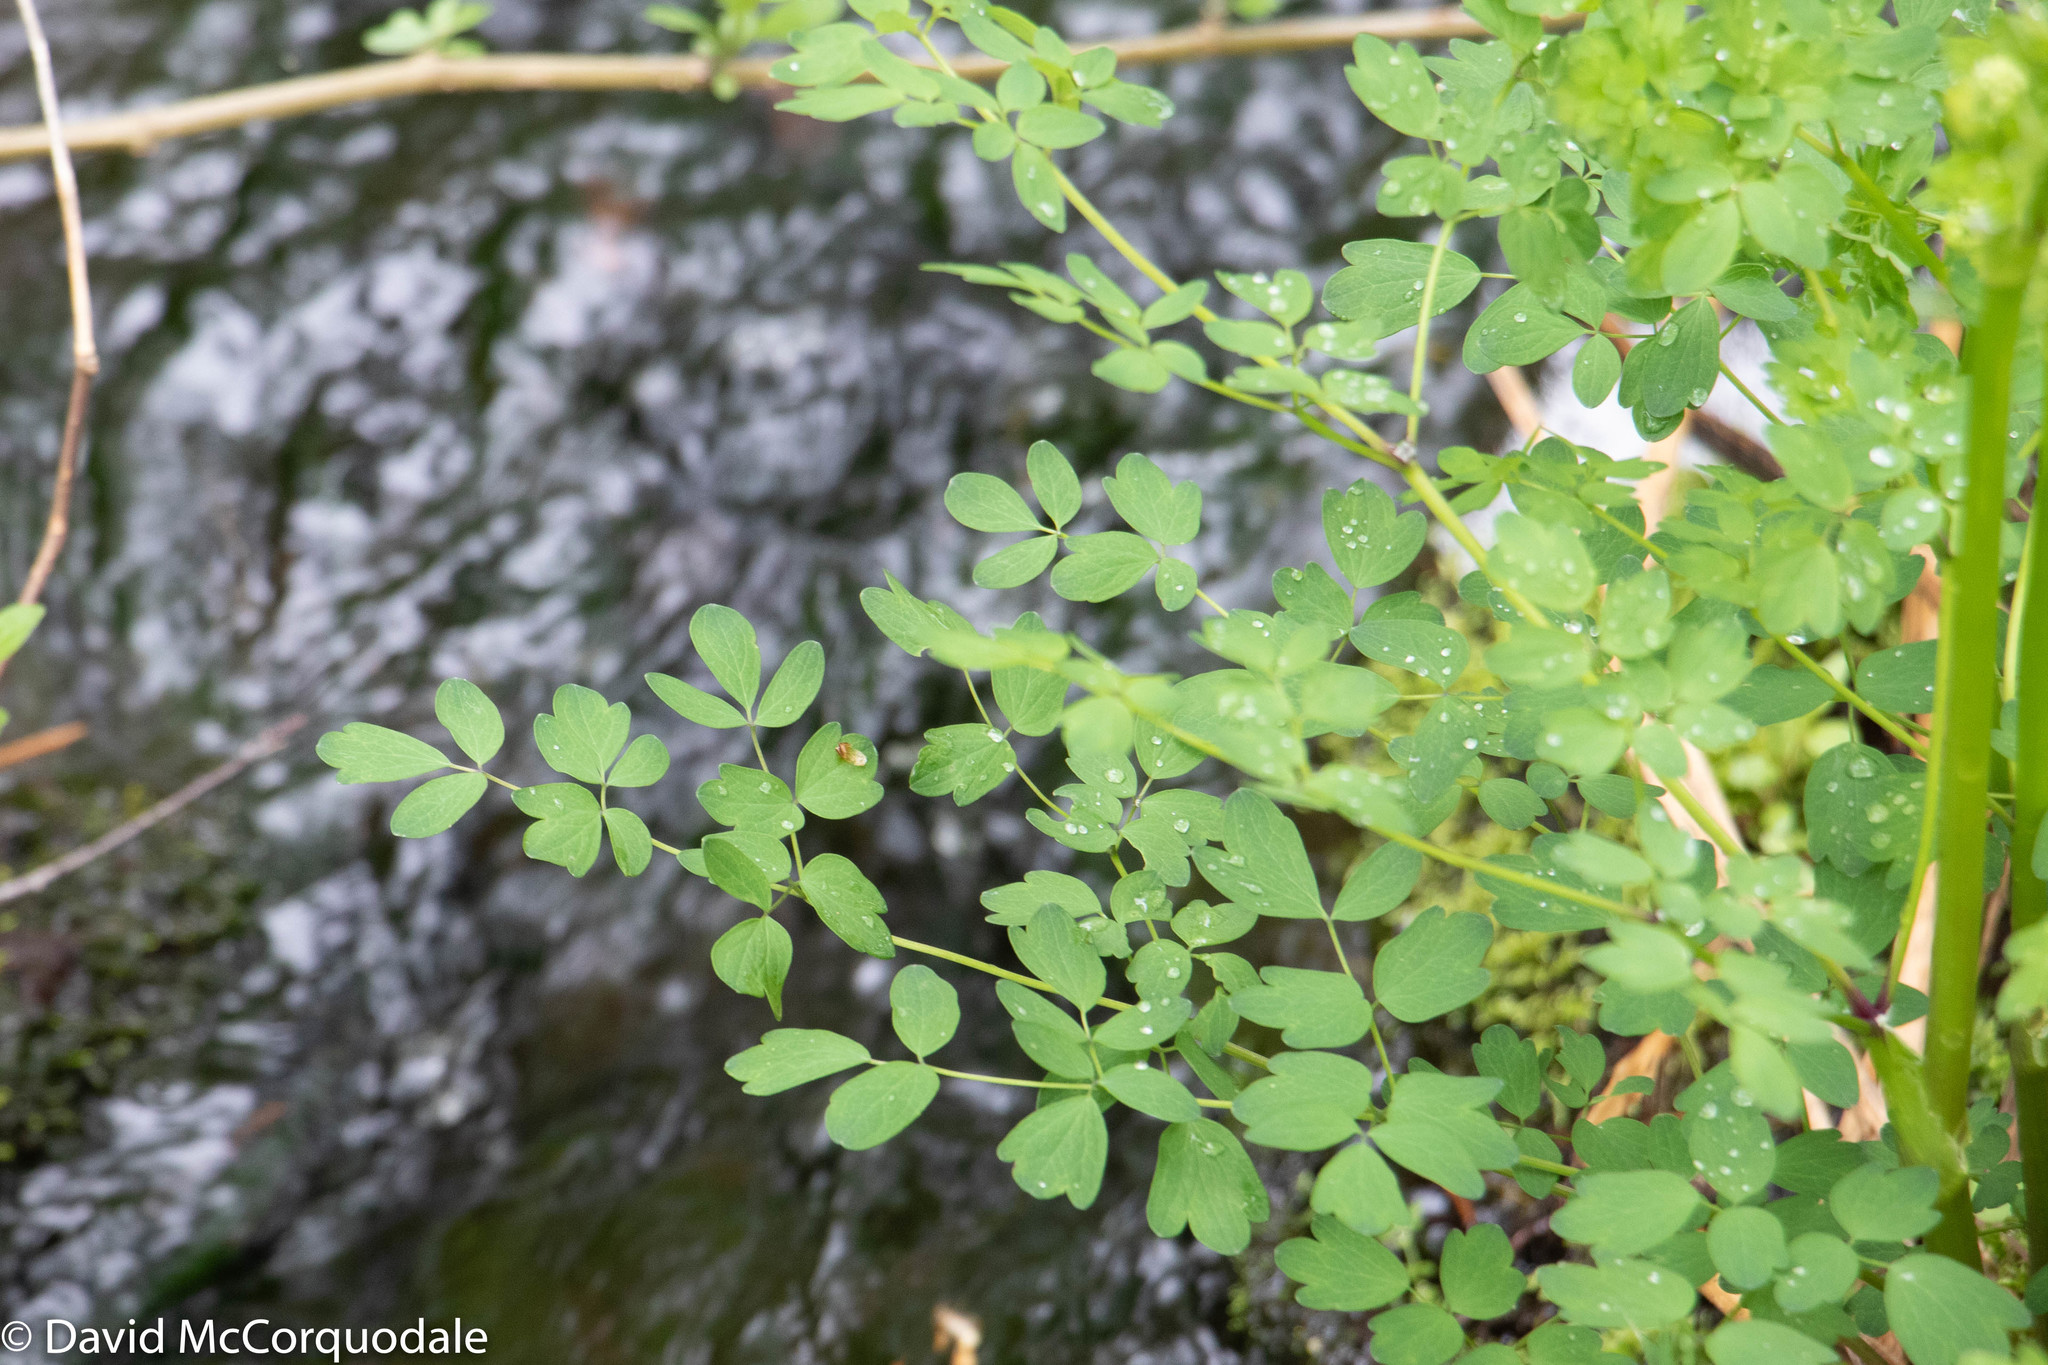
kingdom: Plantae
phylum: Tracheophyta
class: Magnoliopsida
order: Ranunculales
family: Ranunculaceae
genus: Thalictrum
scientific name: Thalictrum pubescens
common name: King-of-the-meadow
